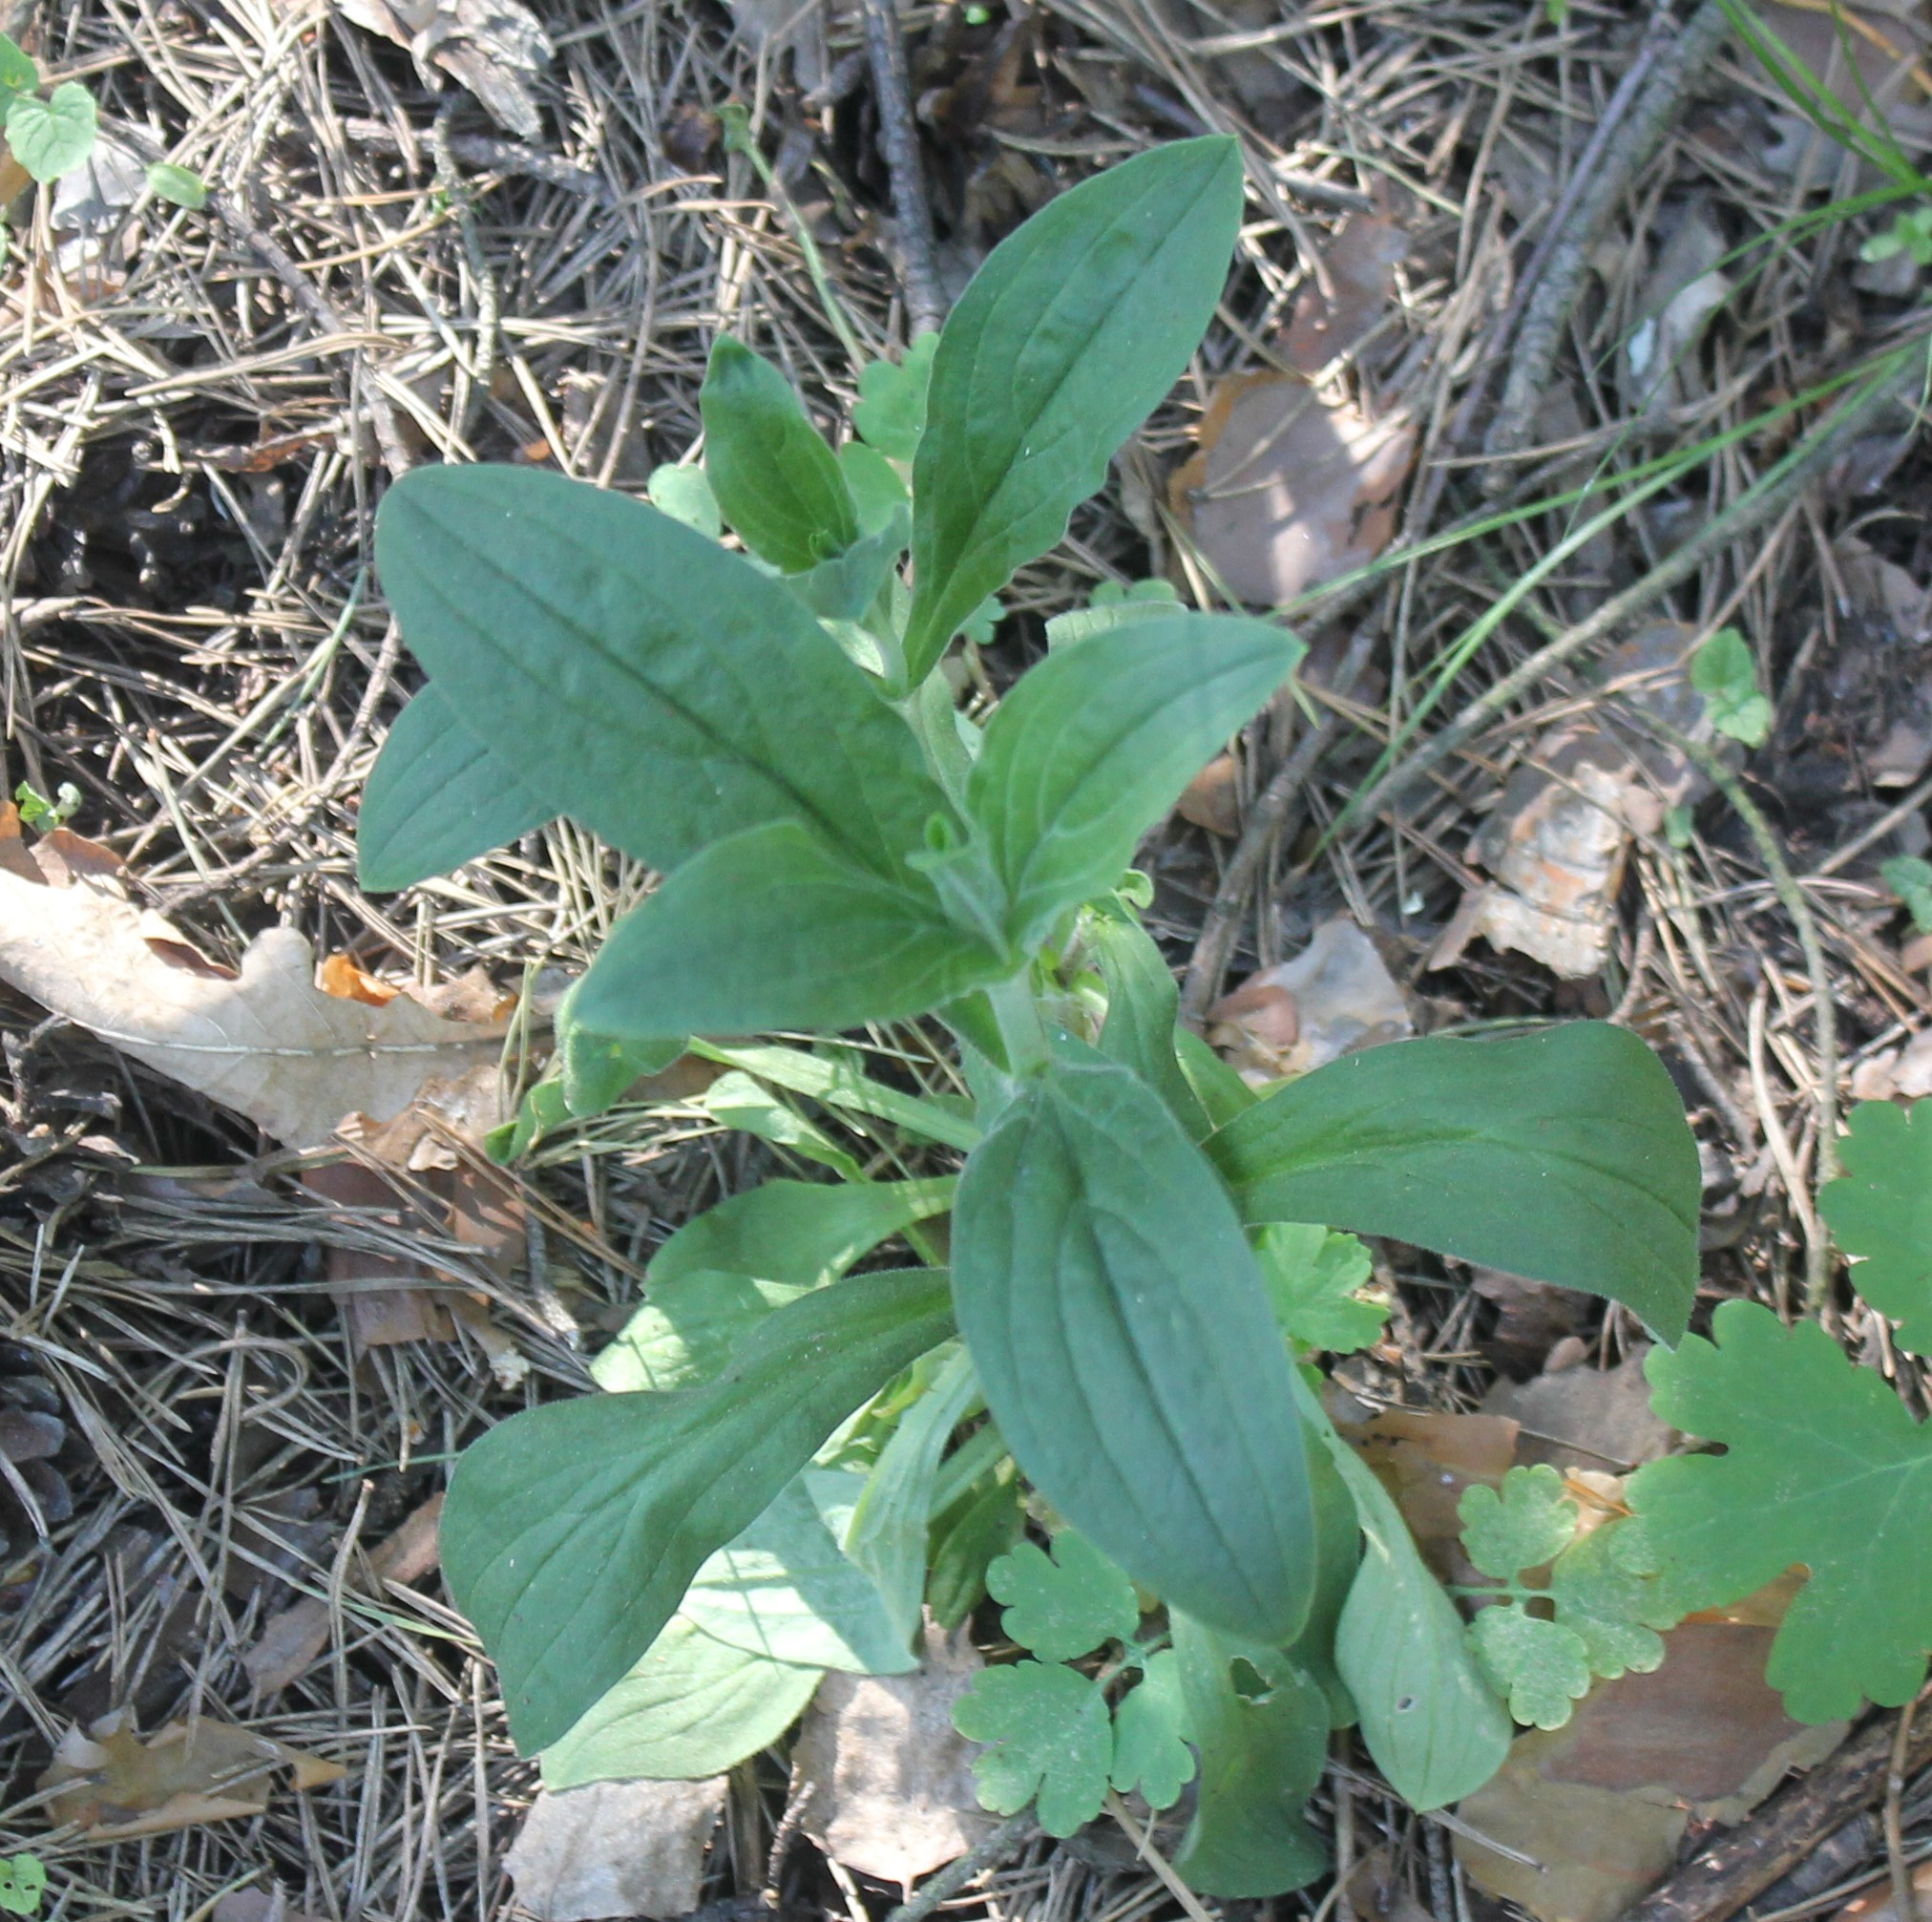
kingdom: Plantae
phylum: Tracheophyta
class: Magnoliopsida
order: Caryophyllales
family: Caryophyllaceae
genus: Silene
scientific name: Silene latifolia
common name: White campion
